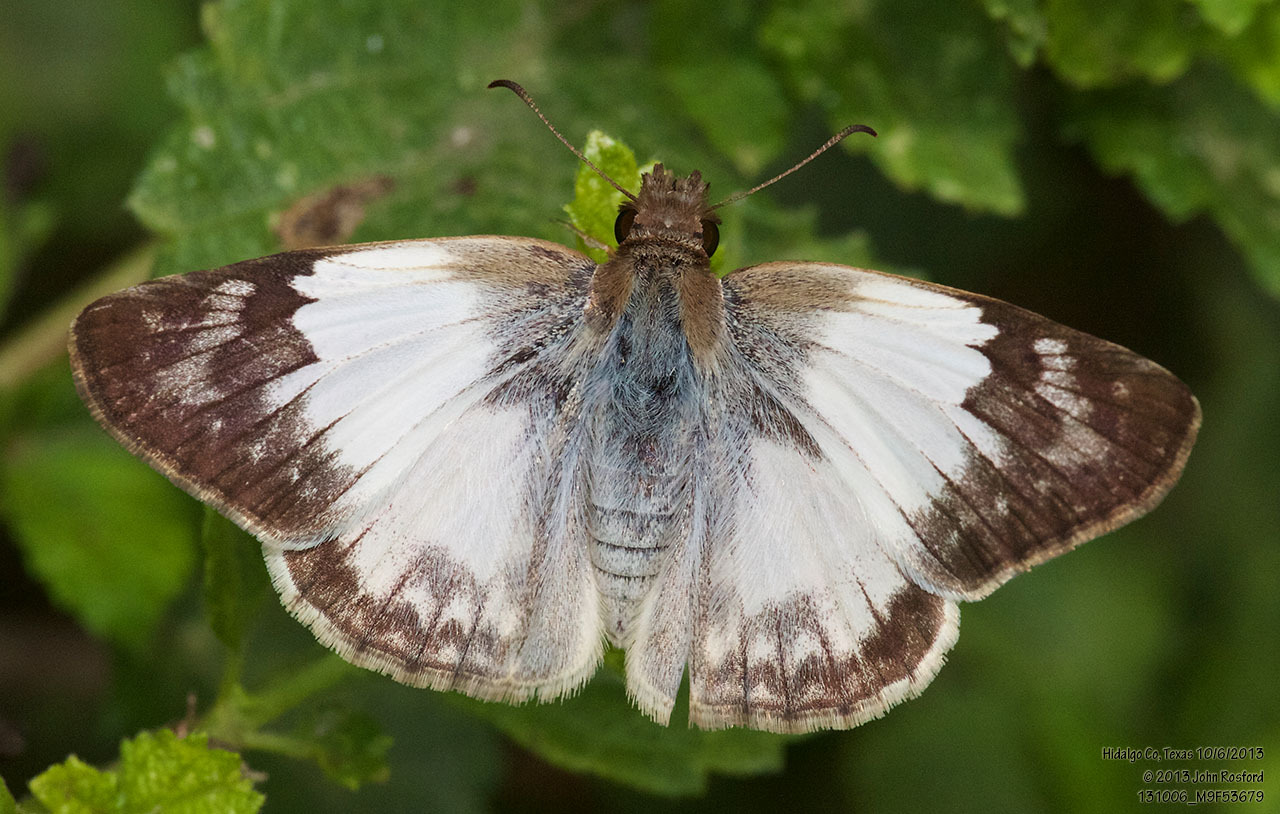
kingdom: Animalia
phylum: Arthropoda
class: Insecta
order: Lepidoptera
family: Hesperiidae
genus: Heliopetes
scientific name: Heliopetes laviana
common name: Laviana white-skipper
